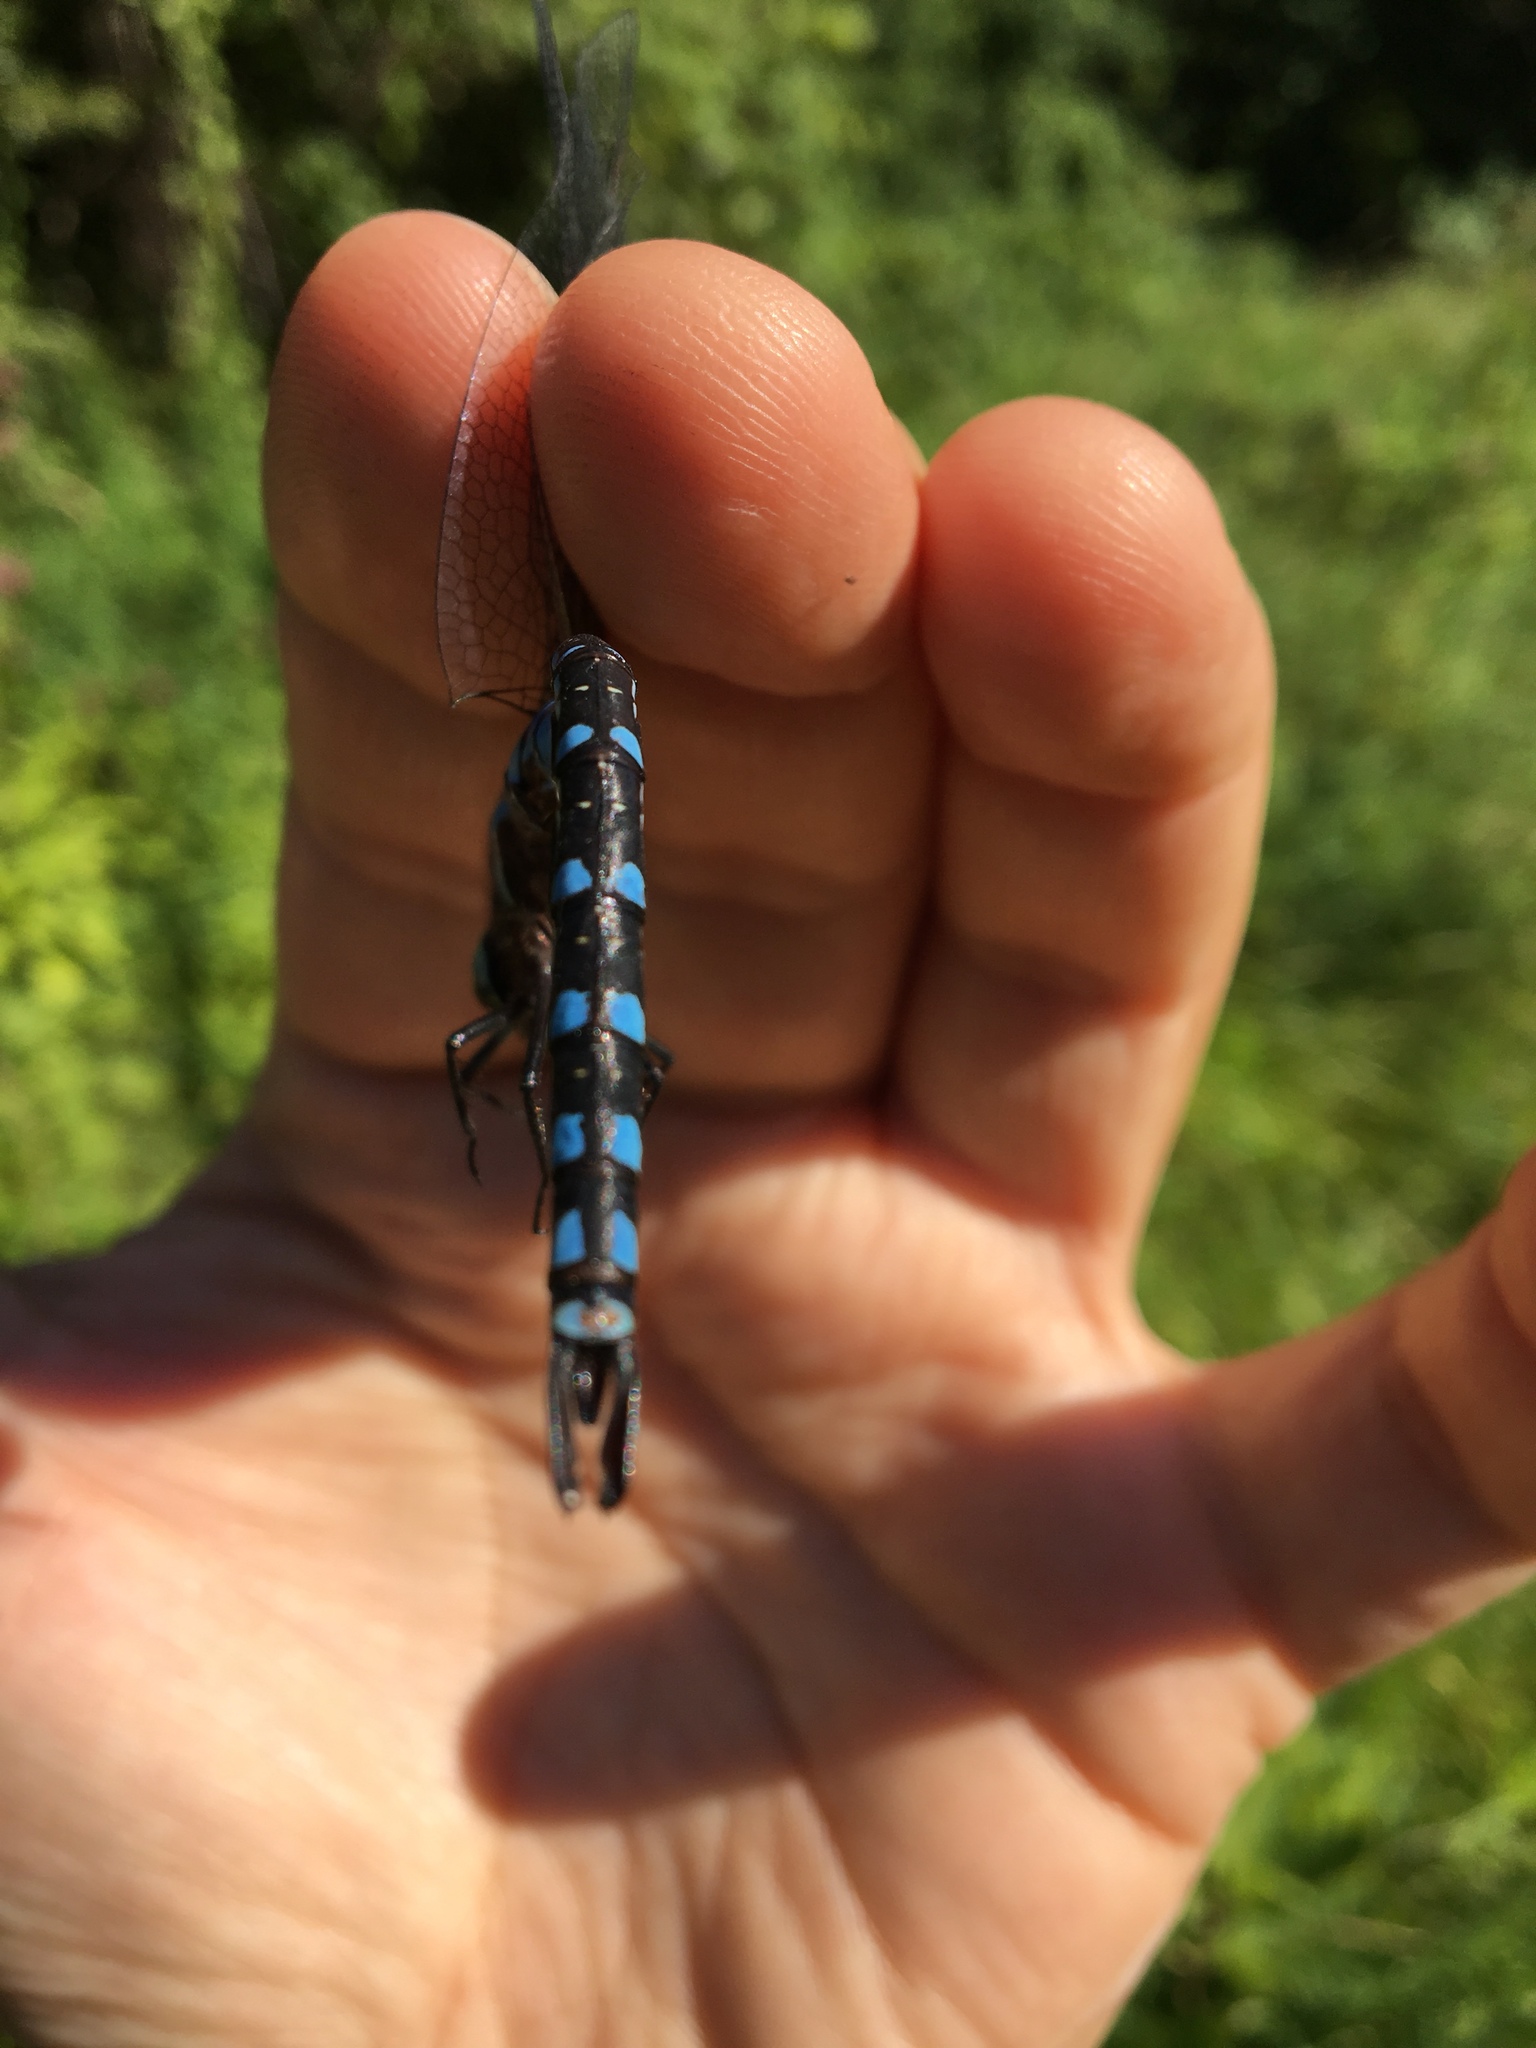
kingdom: Animalia
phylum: Arthropoda
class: Insecta
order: Odonata
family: Aeshnidae
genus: Aeshna
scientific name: Aeshna constricta
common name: Lance-tipped darner
